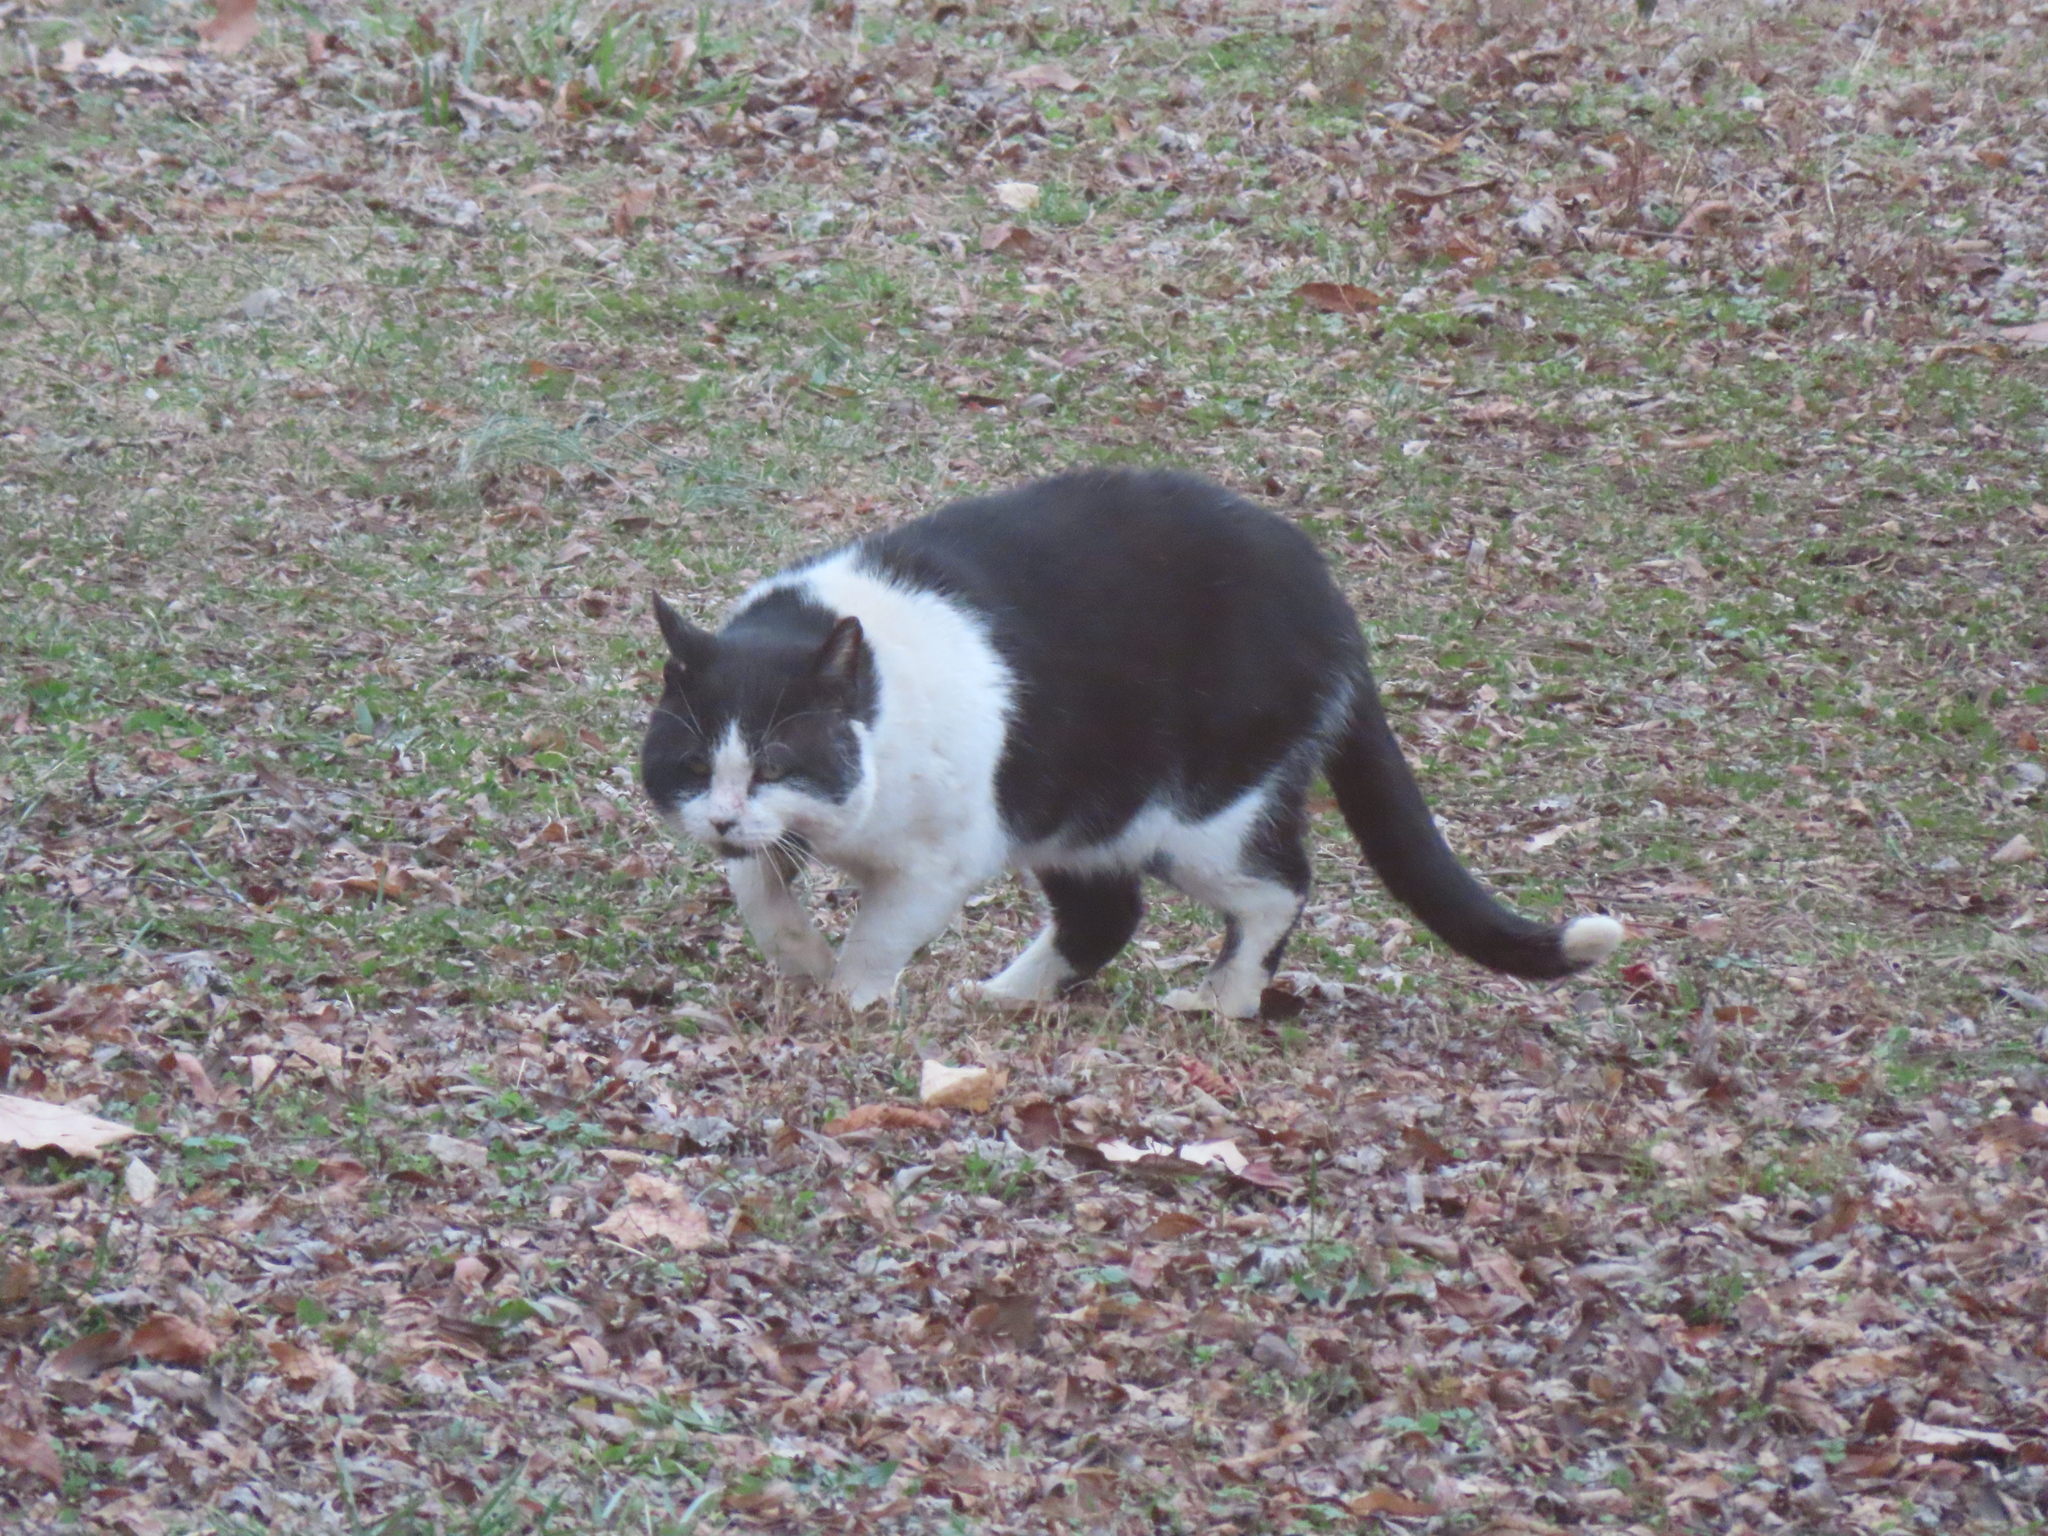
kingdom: Animalia
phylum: Chordata
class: Mammalia
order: Carnivora
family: Felidae
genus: Felis
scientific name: Felis catus
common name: Domestic cat
